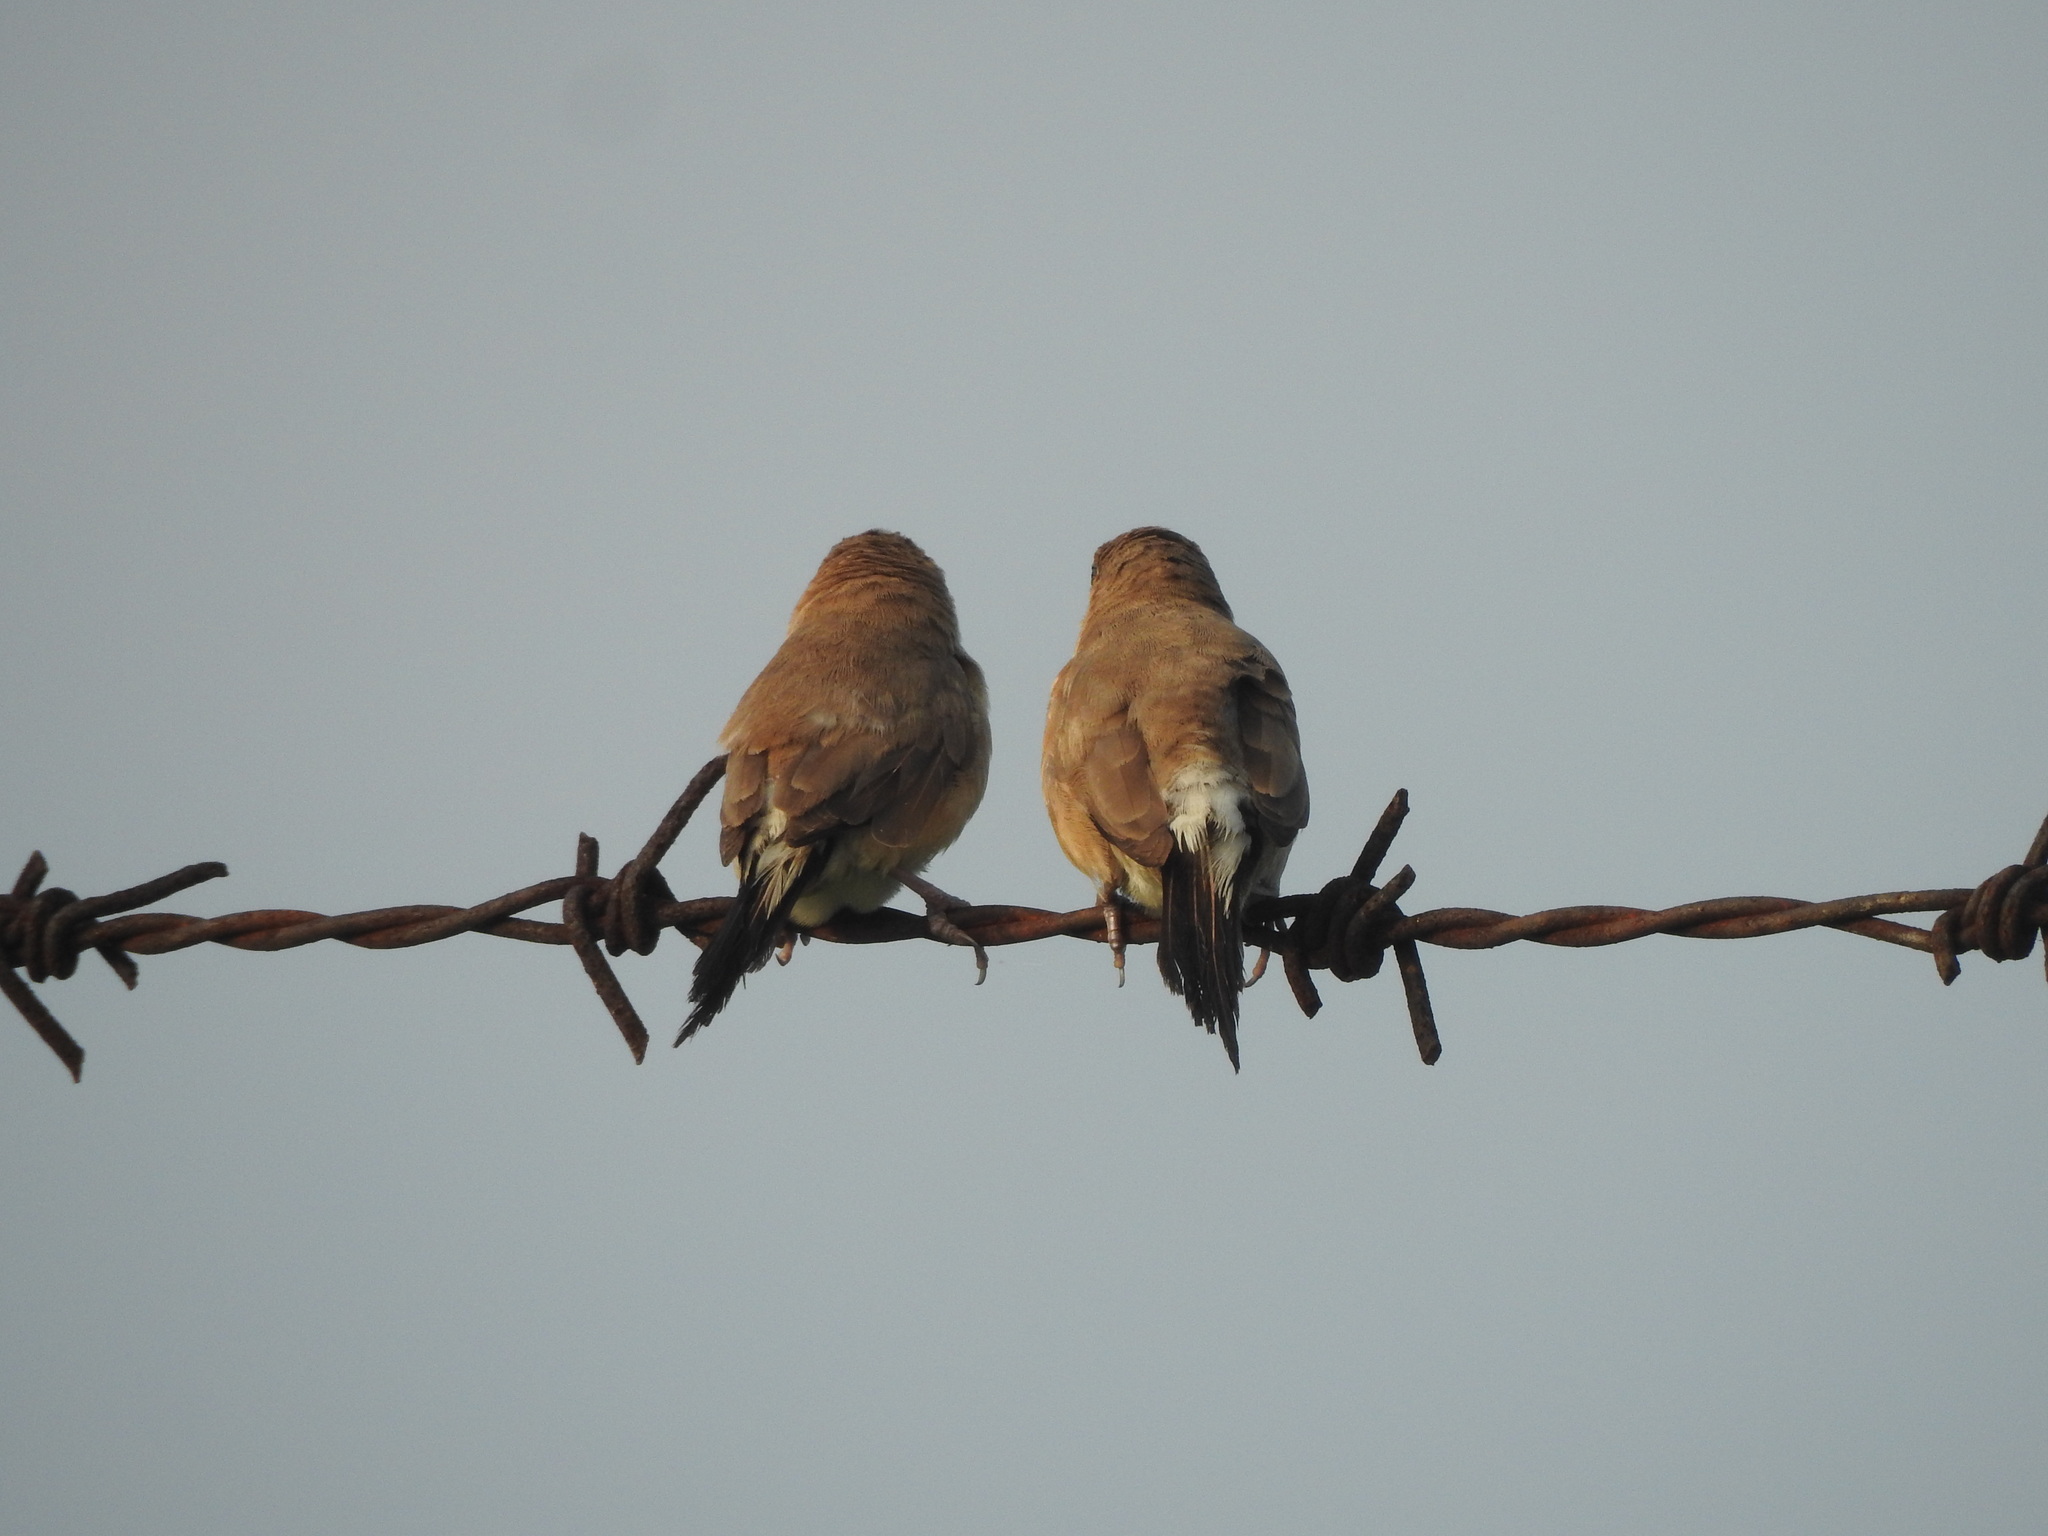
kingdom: Animalia
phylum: Chordata
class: Aves
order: Passeriformes
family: Estrildidae
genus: Euodice
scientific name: Euodice malabarica
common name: Indian silverbill
